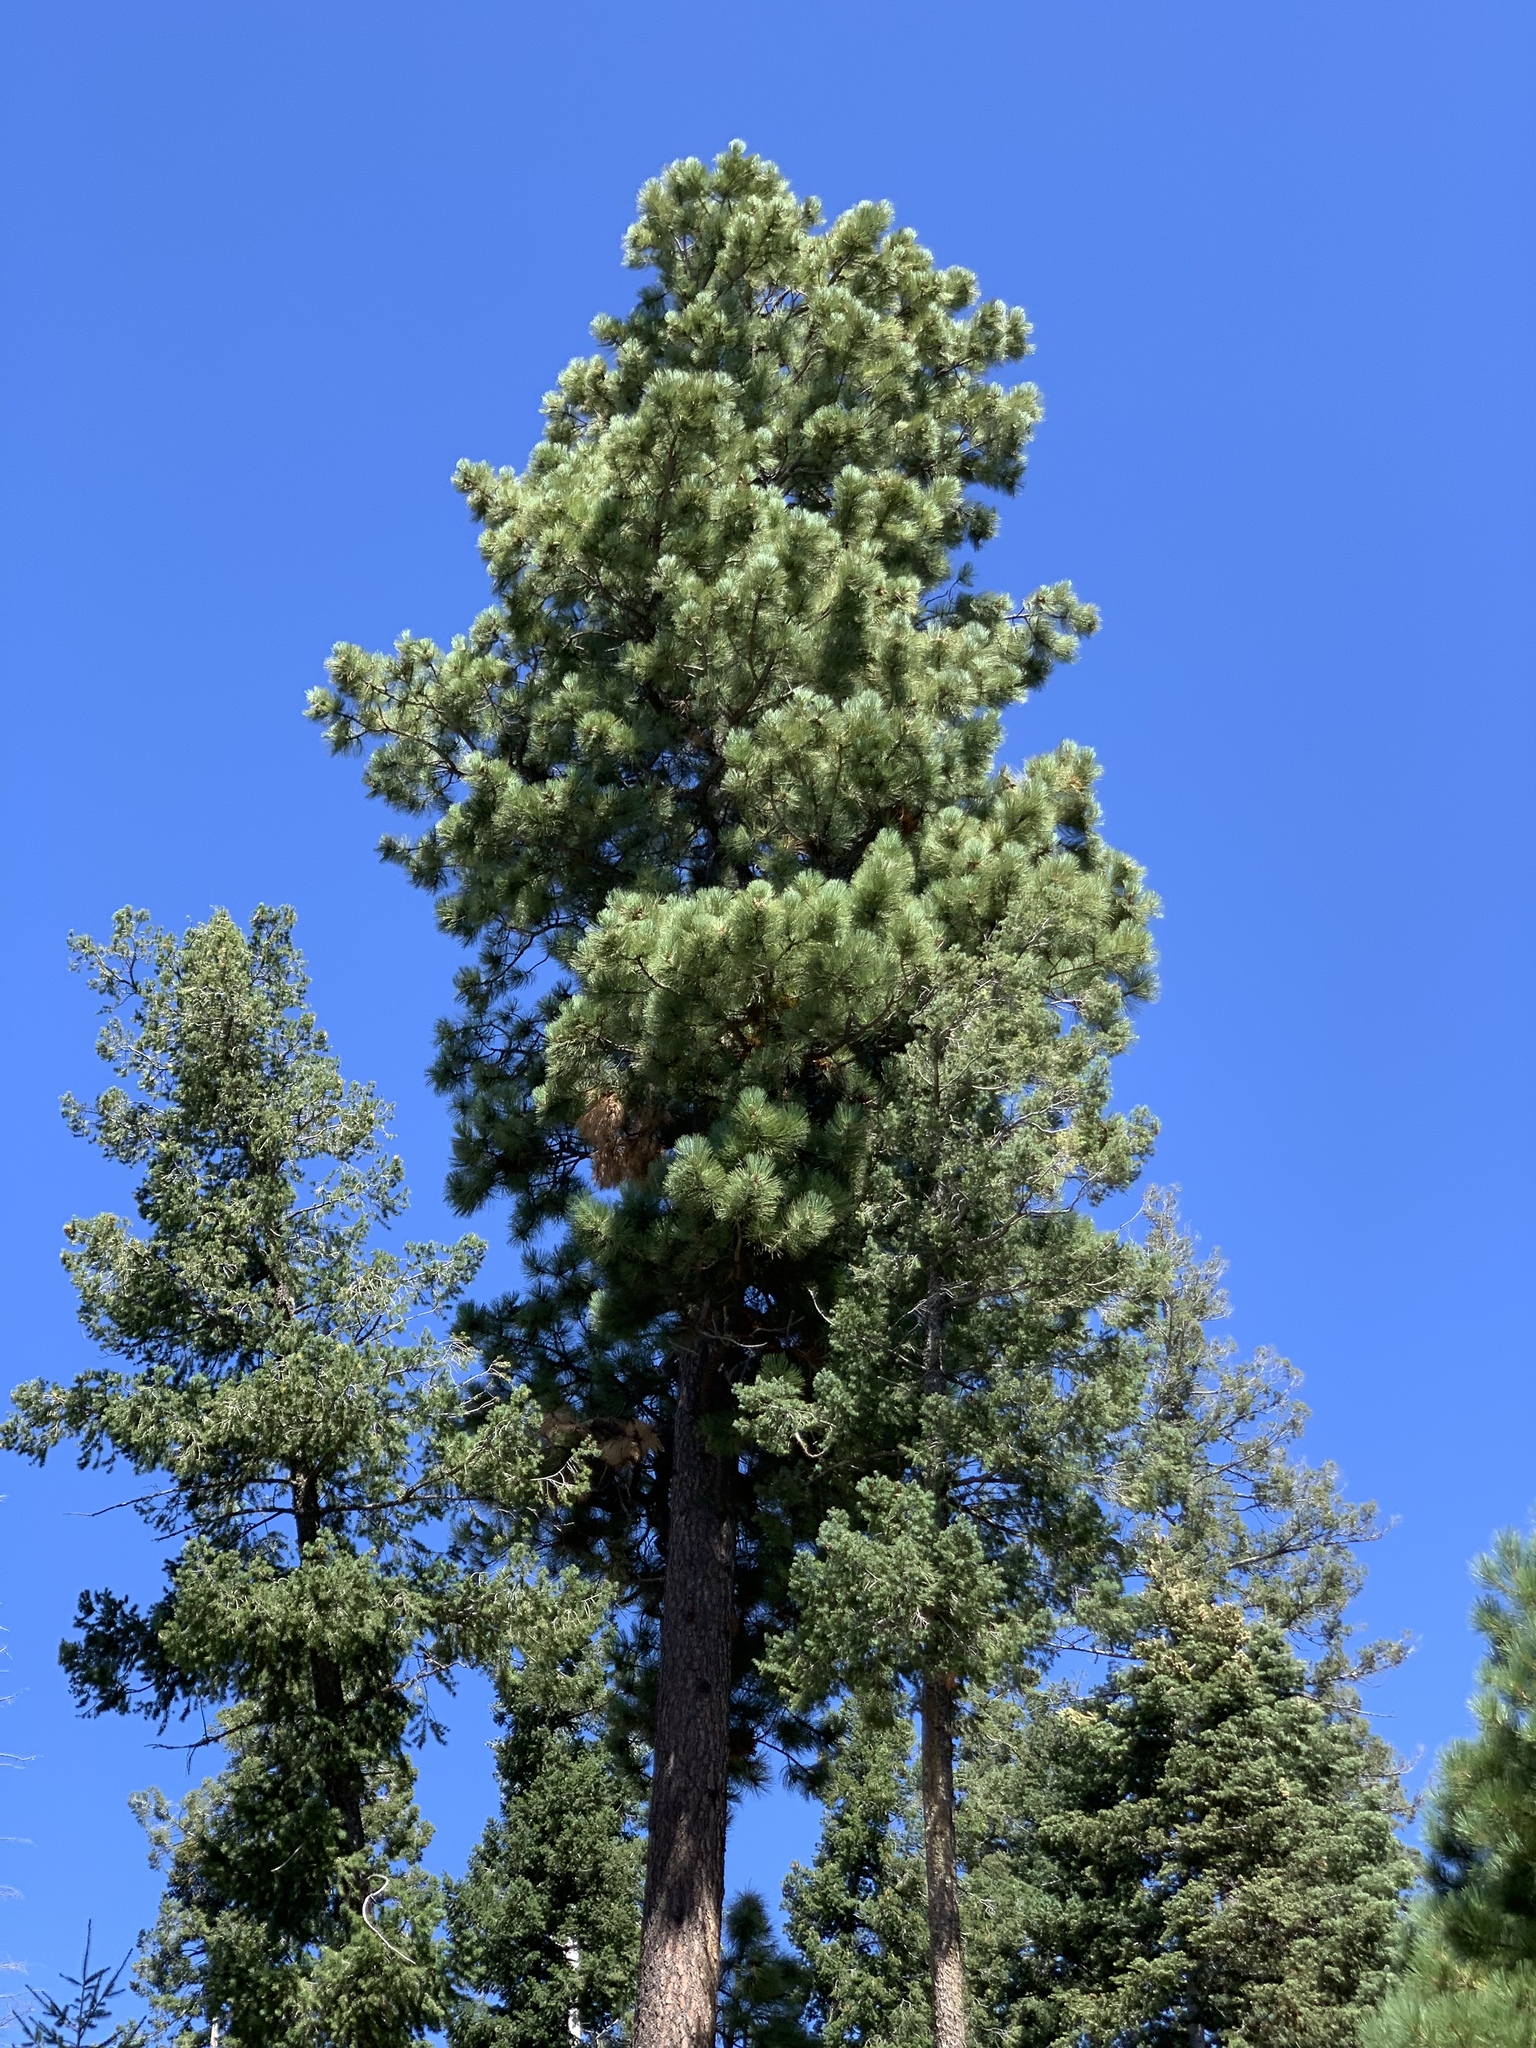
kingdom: Plantae
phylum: Tracheophyta
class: Pinopsida
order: Pinales
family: Pinaceae
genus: Pinus
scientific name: Pinus ponderosa
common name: Western yellow-pine
